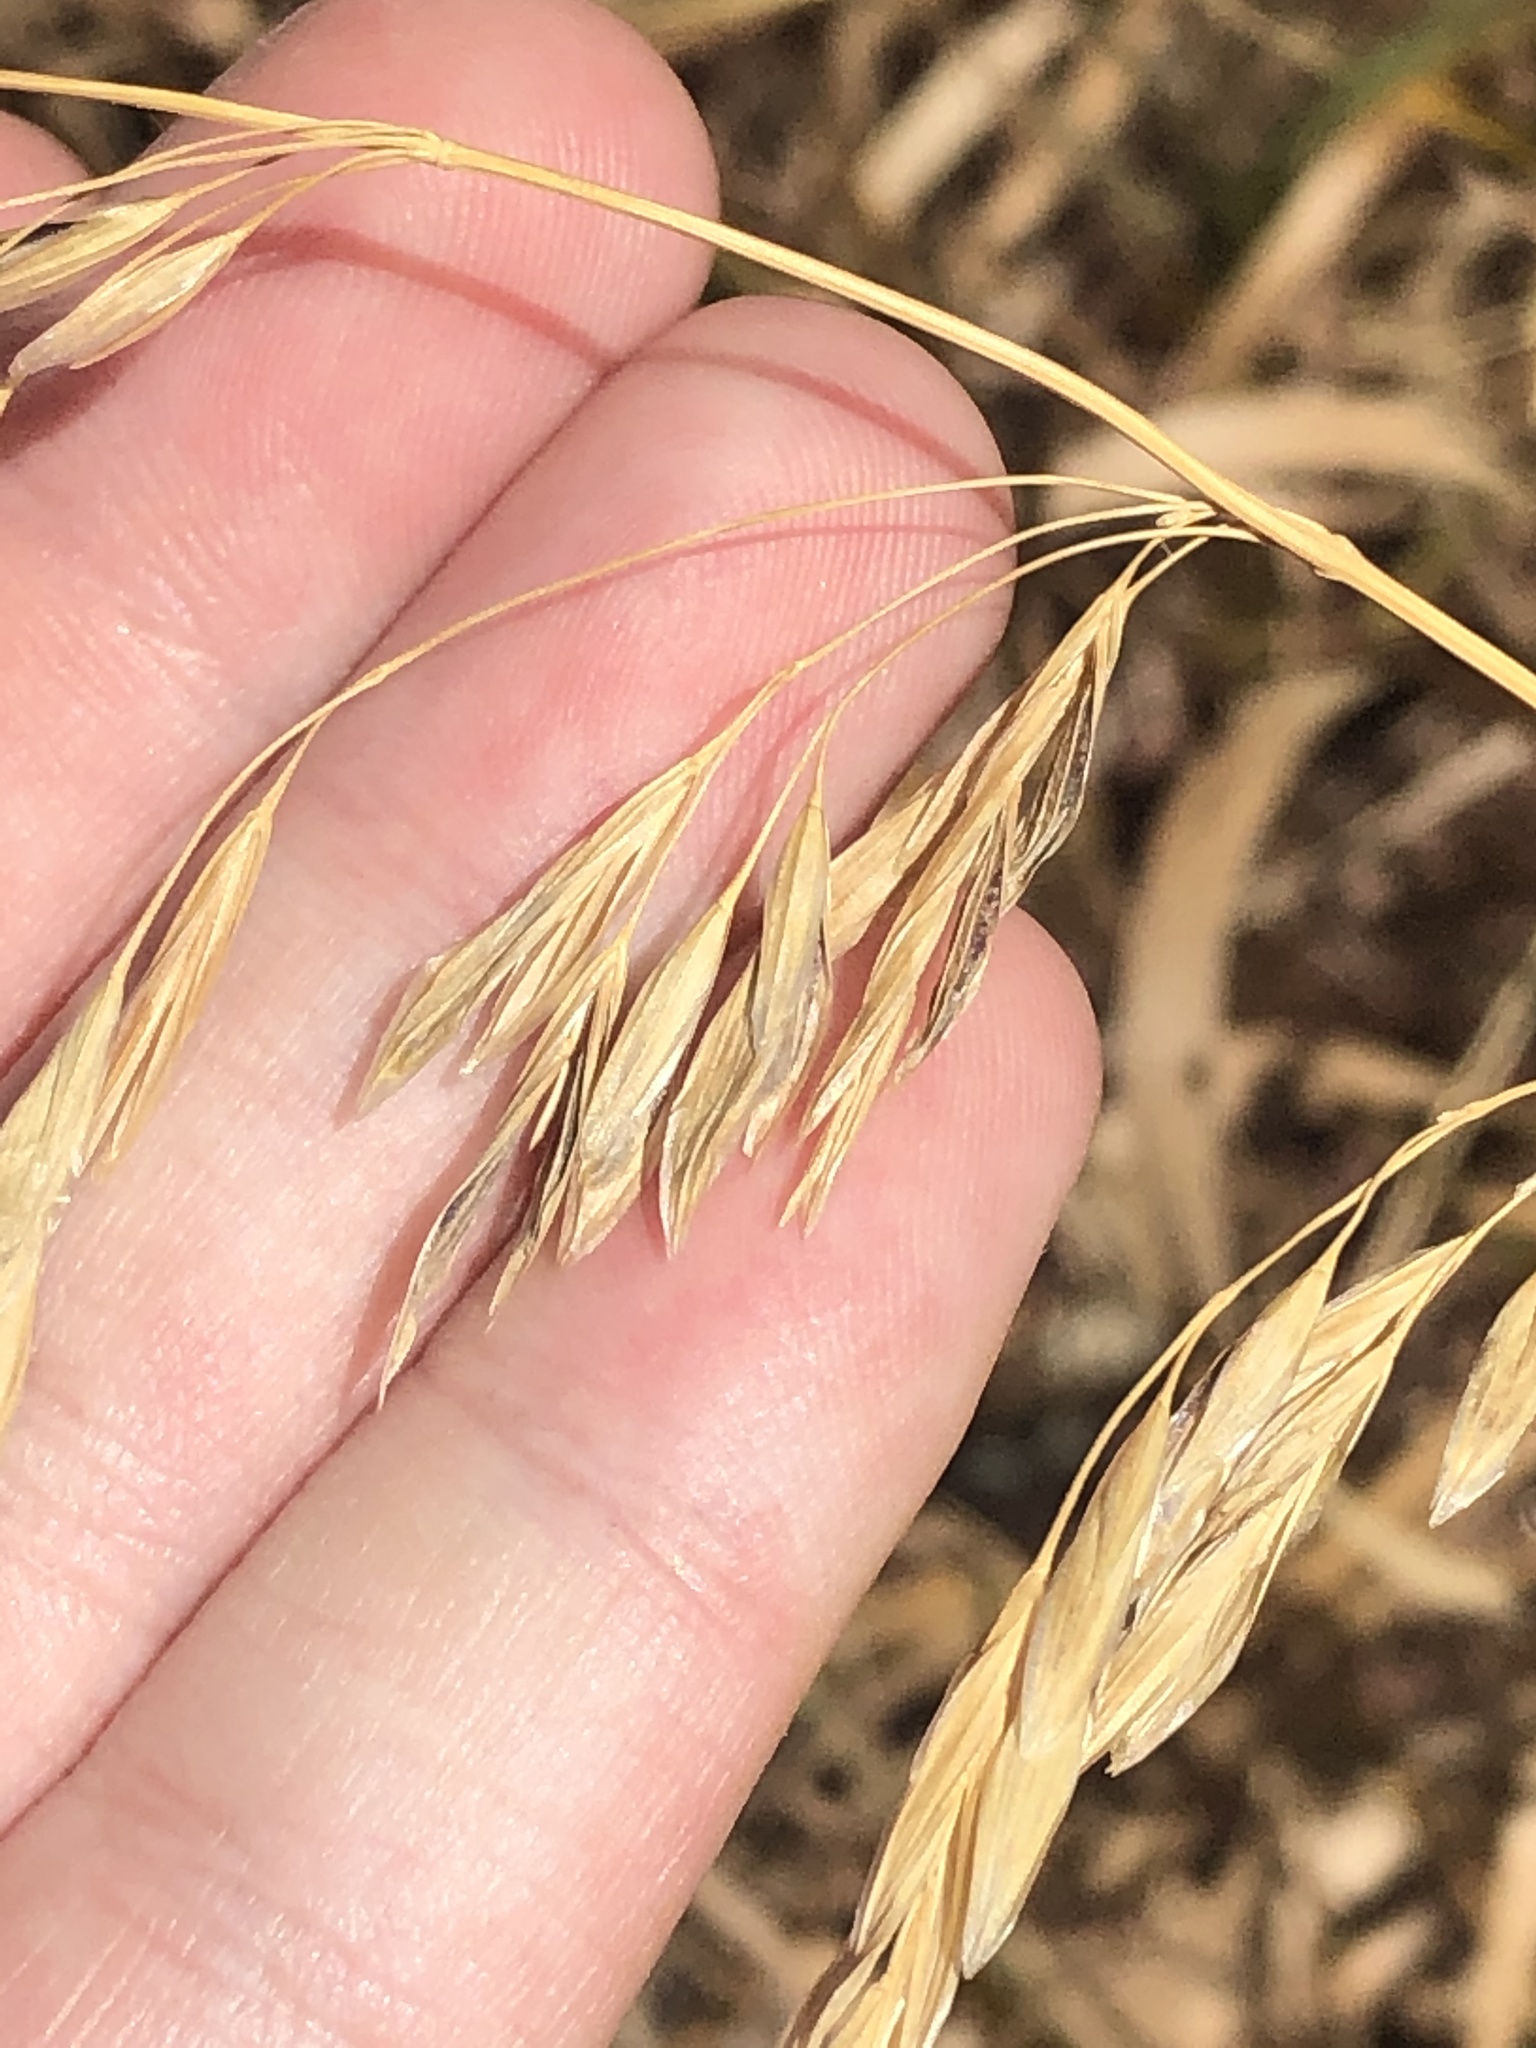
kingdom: Plantae
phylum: Tracheophyta
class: Liliopsida
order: Poales
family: Poaceae
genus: Bromus
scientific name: Bromus inermis
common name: Smooth brome
